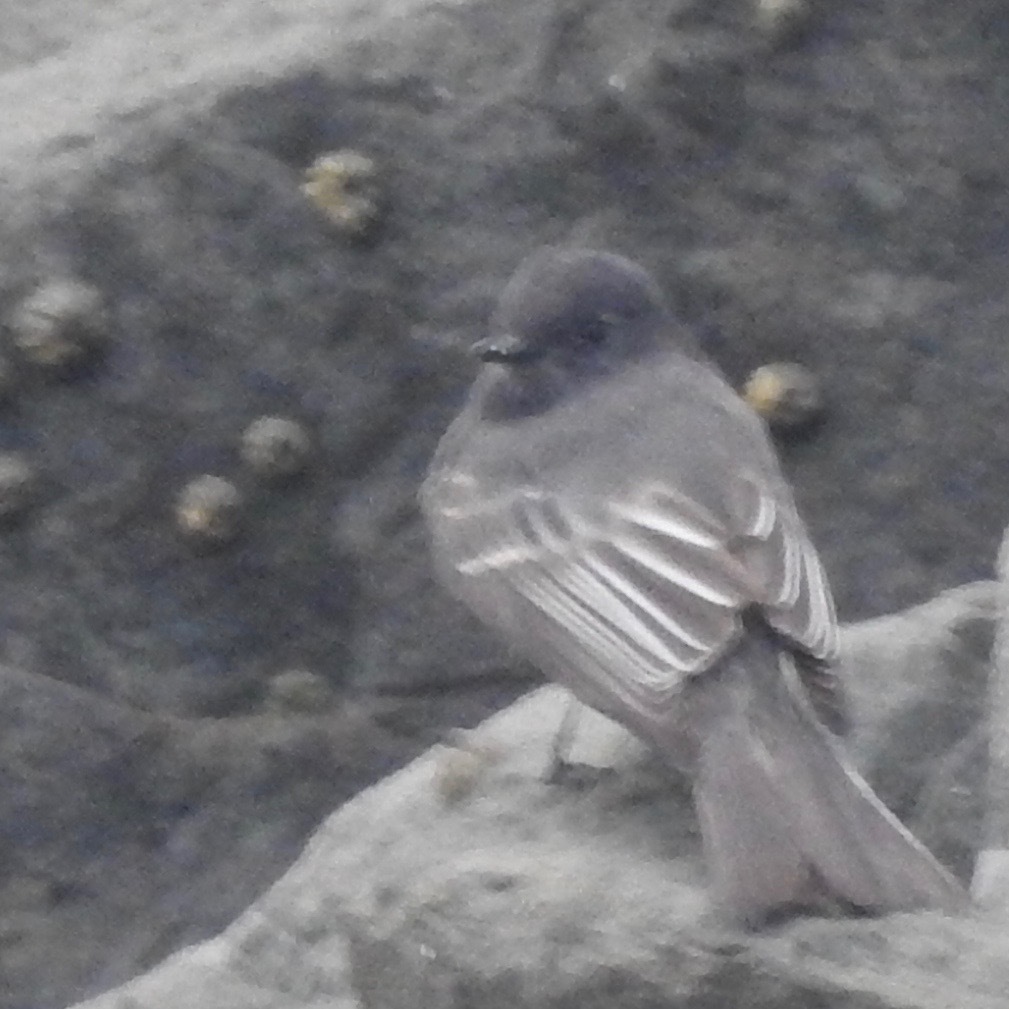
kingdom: Animalia
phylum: Chordata
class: Aves
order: Passeriformes
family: Tyrannidae
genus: Sayornis
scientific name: Sayornis nigricans
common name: Black phoebe
